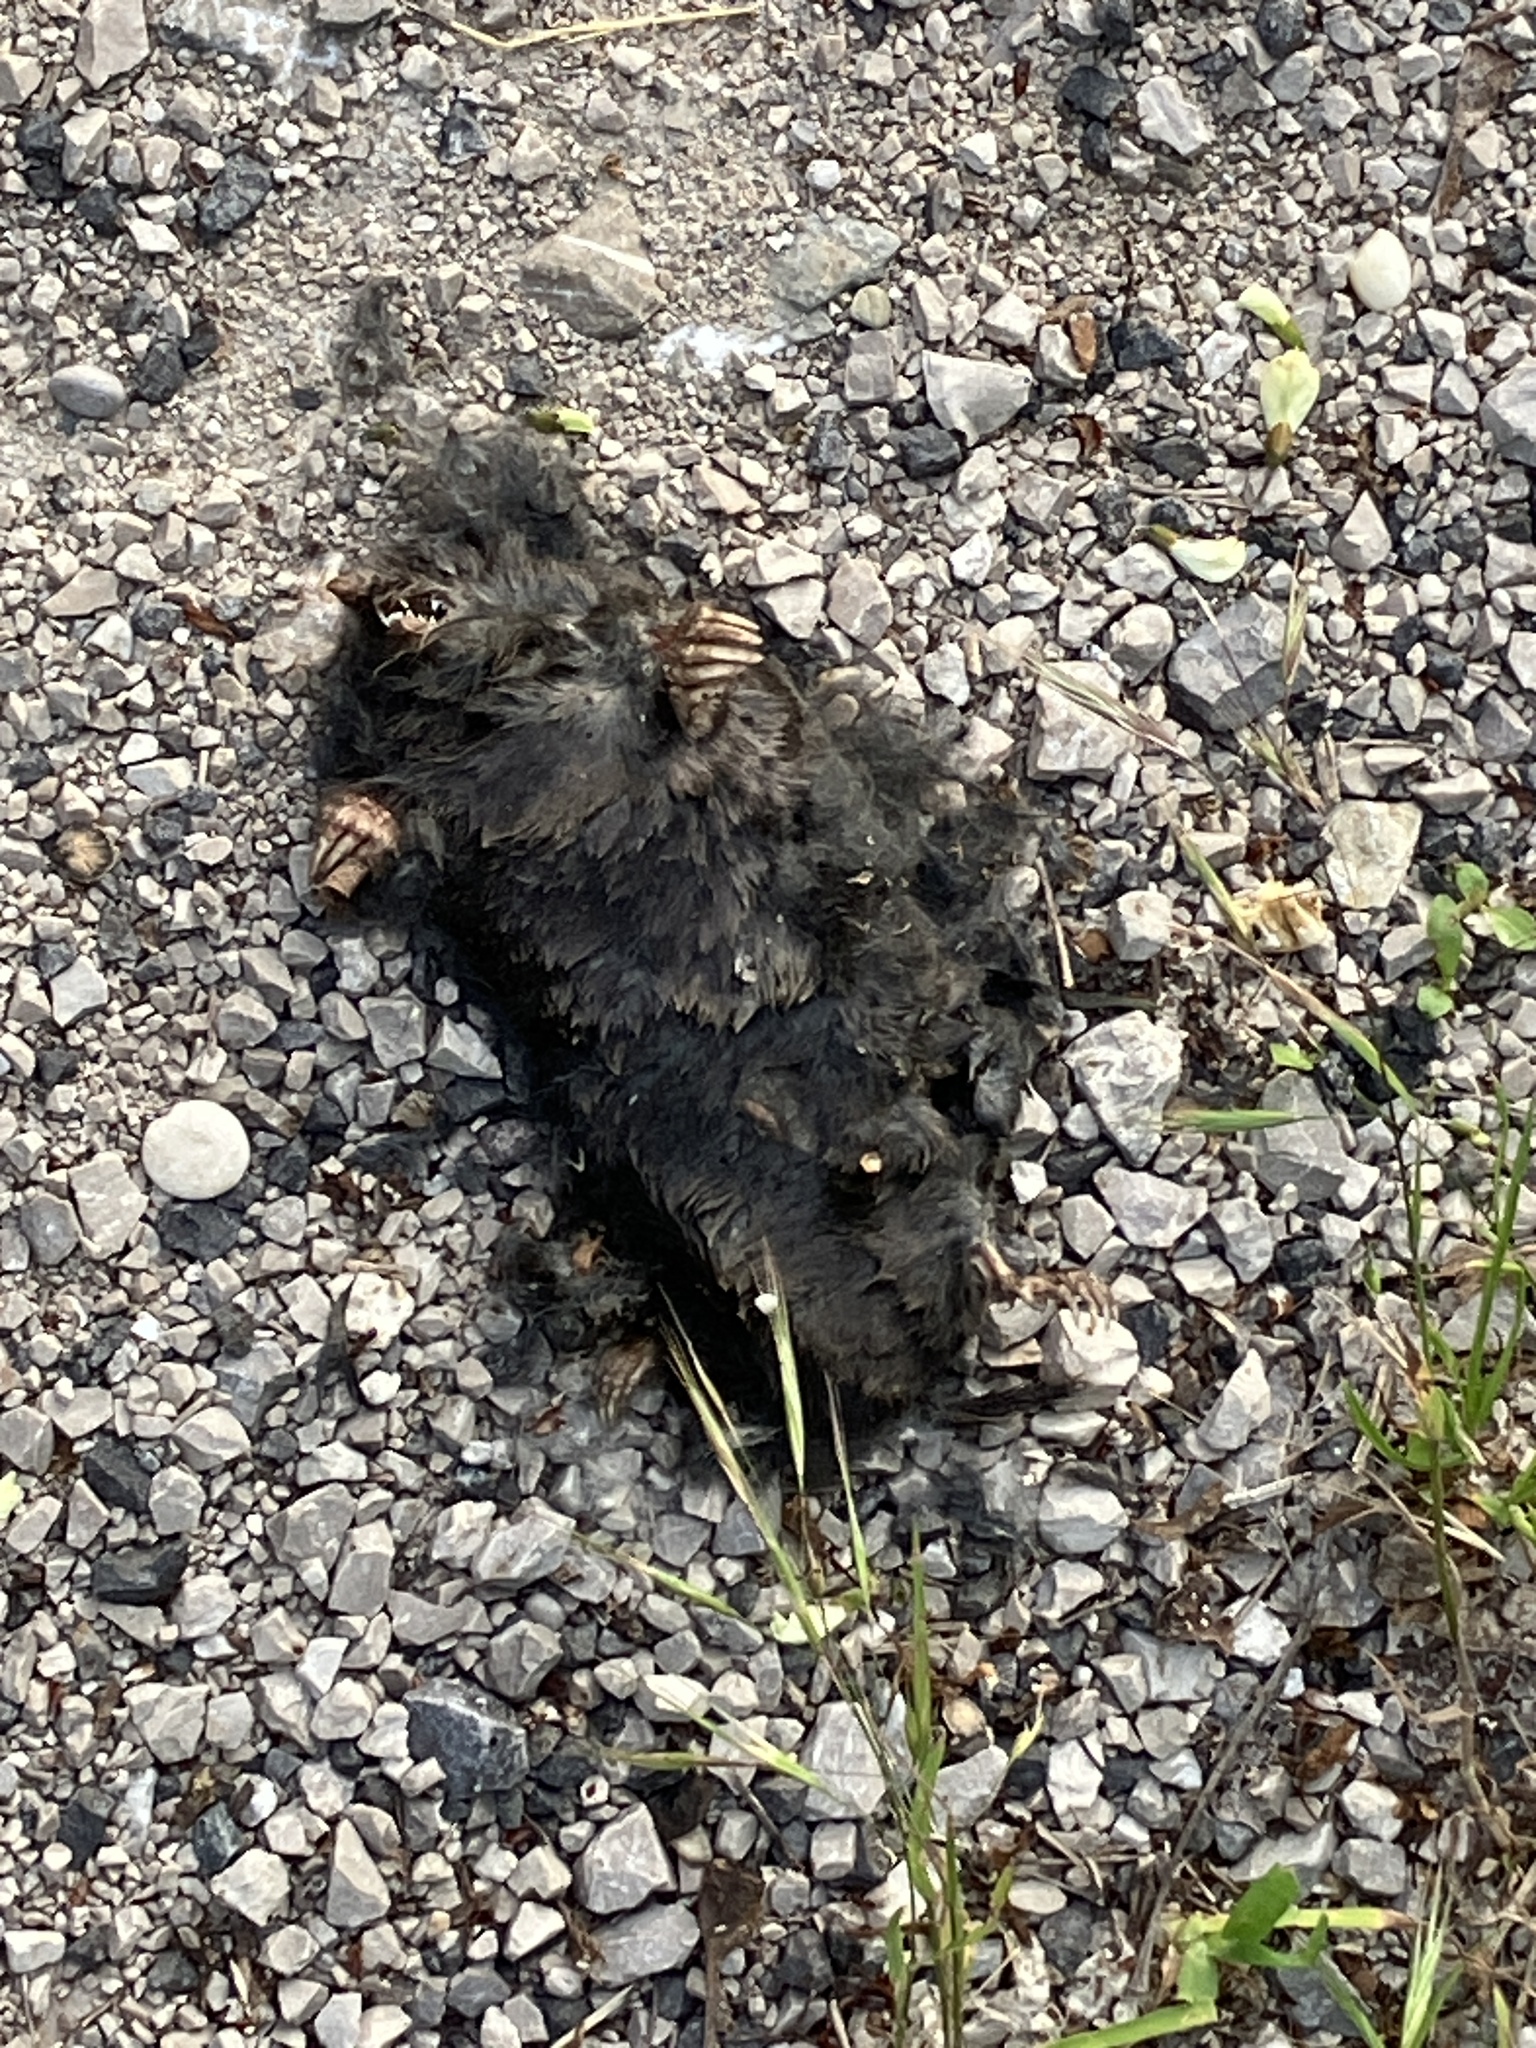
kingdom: Animalia
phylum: Chordata
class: Mammalia
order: Soricomorpha
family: Talpidae
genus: Talpa
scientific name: Talpa europaea
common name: European mole
